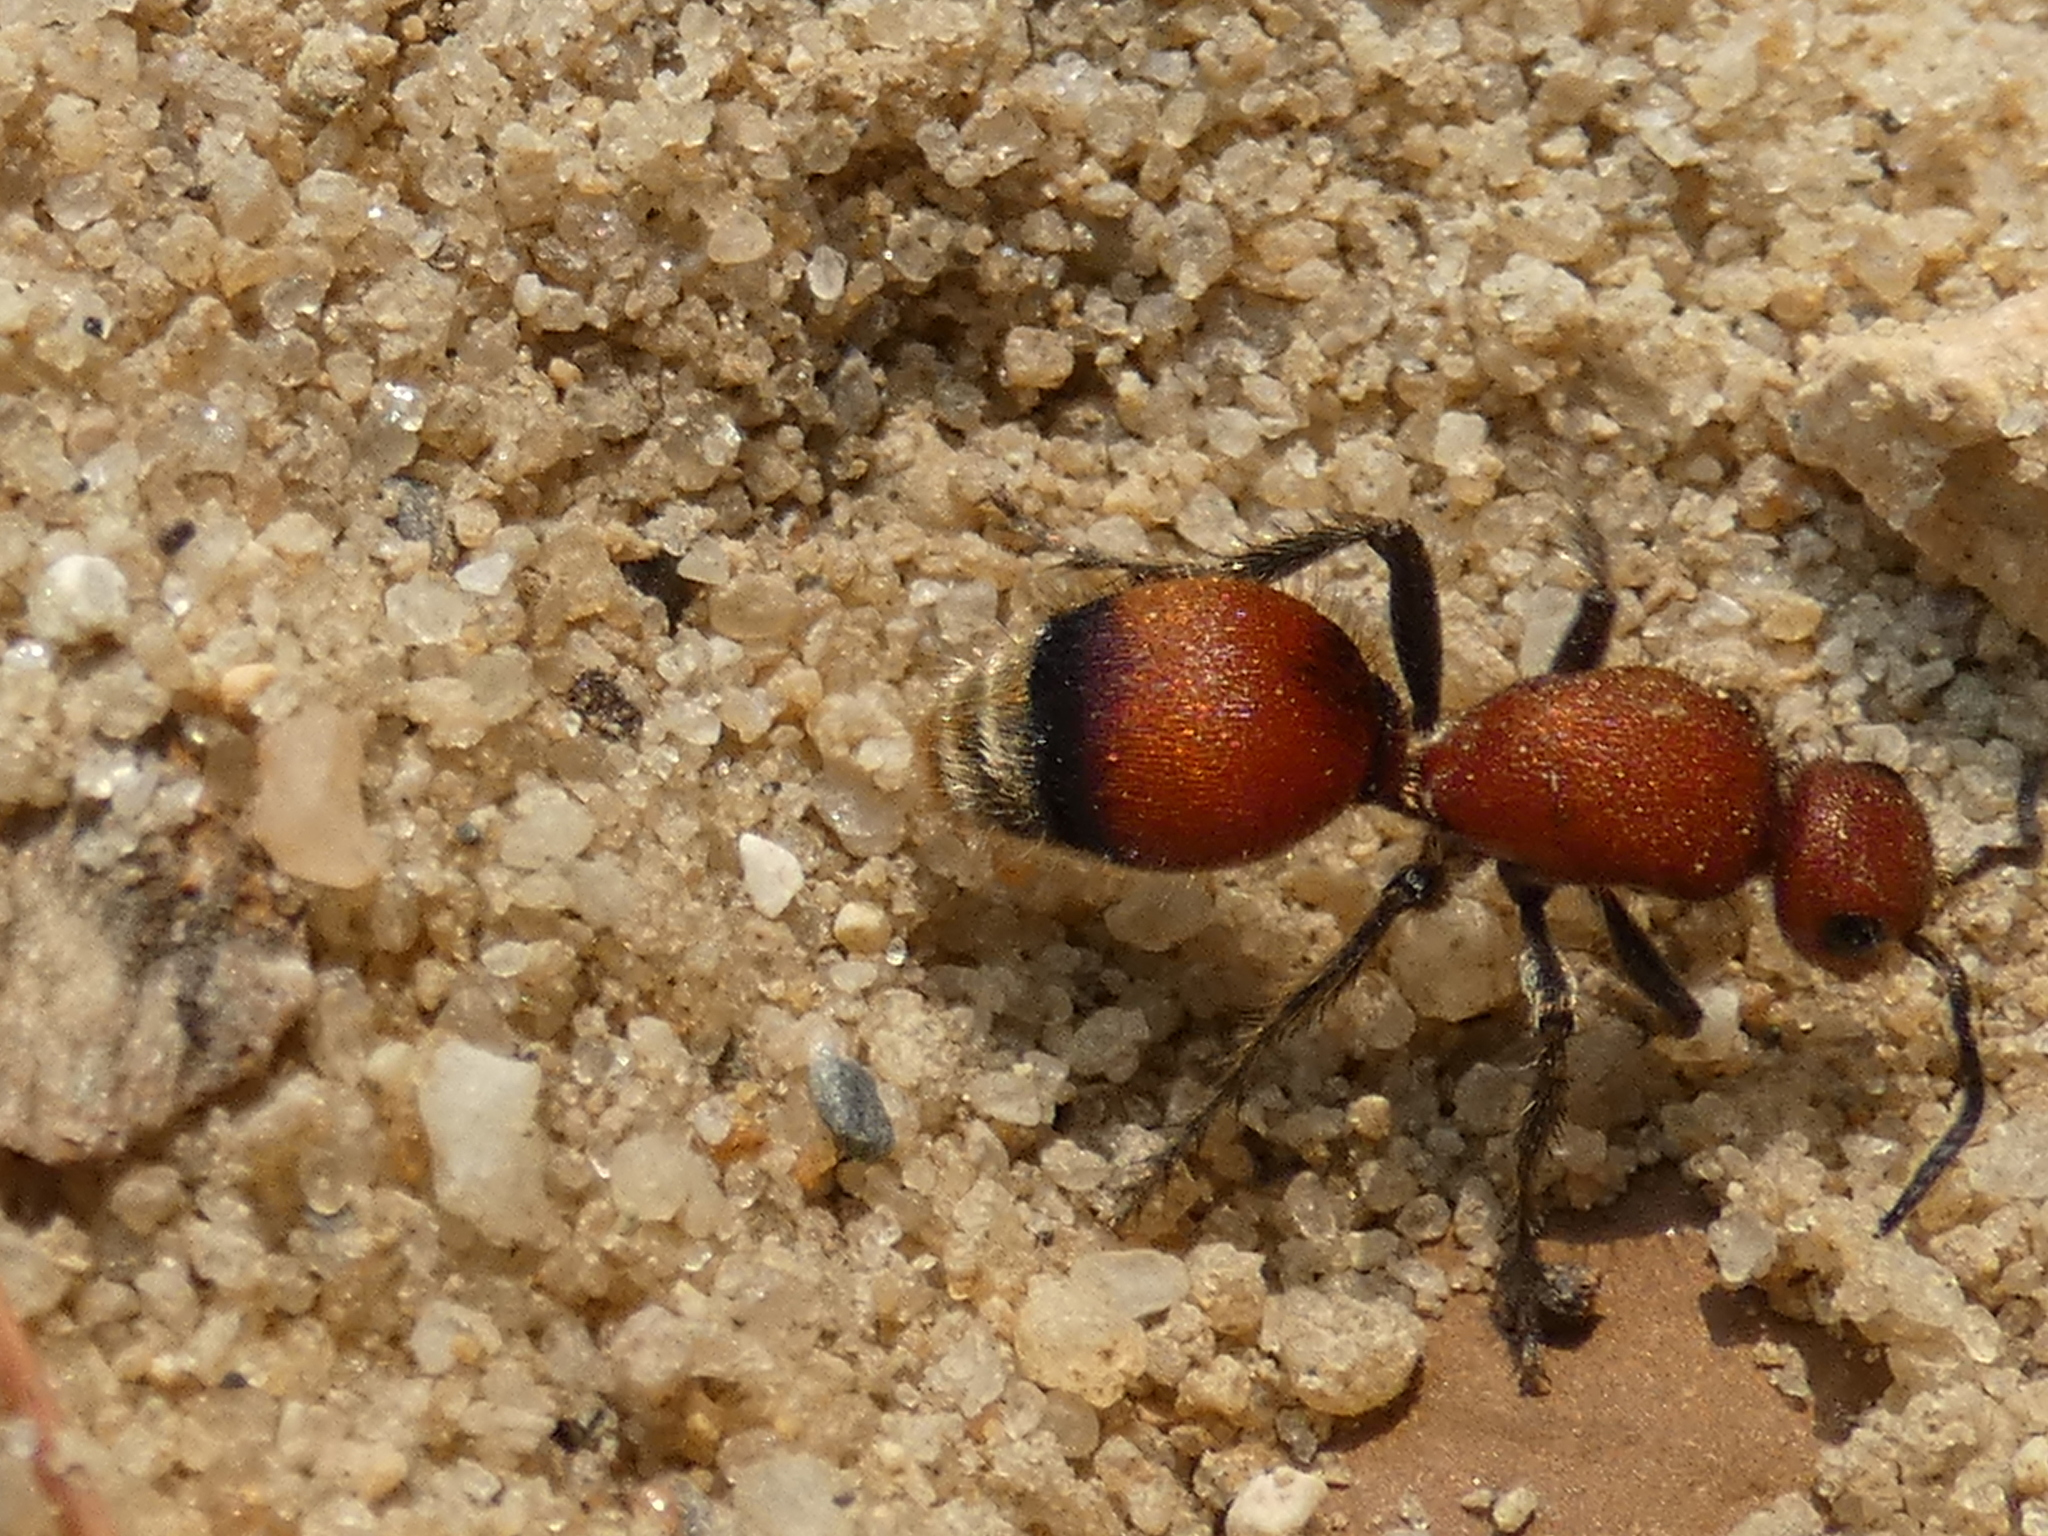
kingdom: Animalia
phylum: Arthropoda
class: Insecta
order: Hymenoptera
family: Mutillidae
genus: Dasymutilla
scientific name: Dasymutilla
